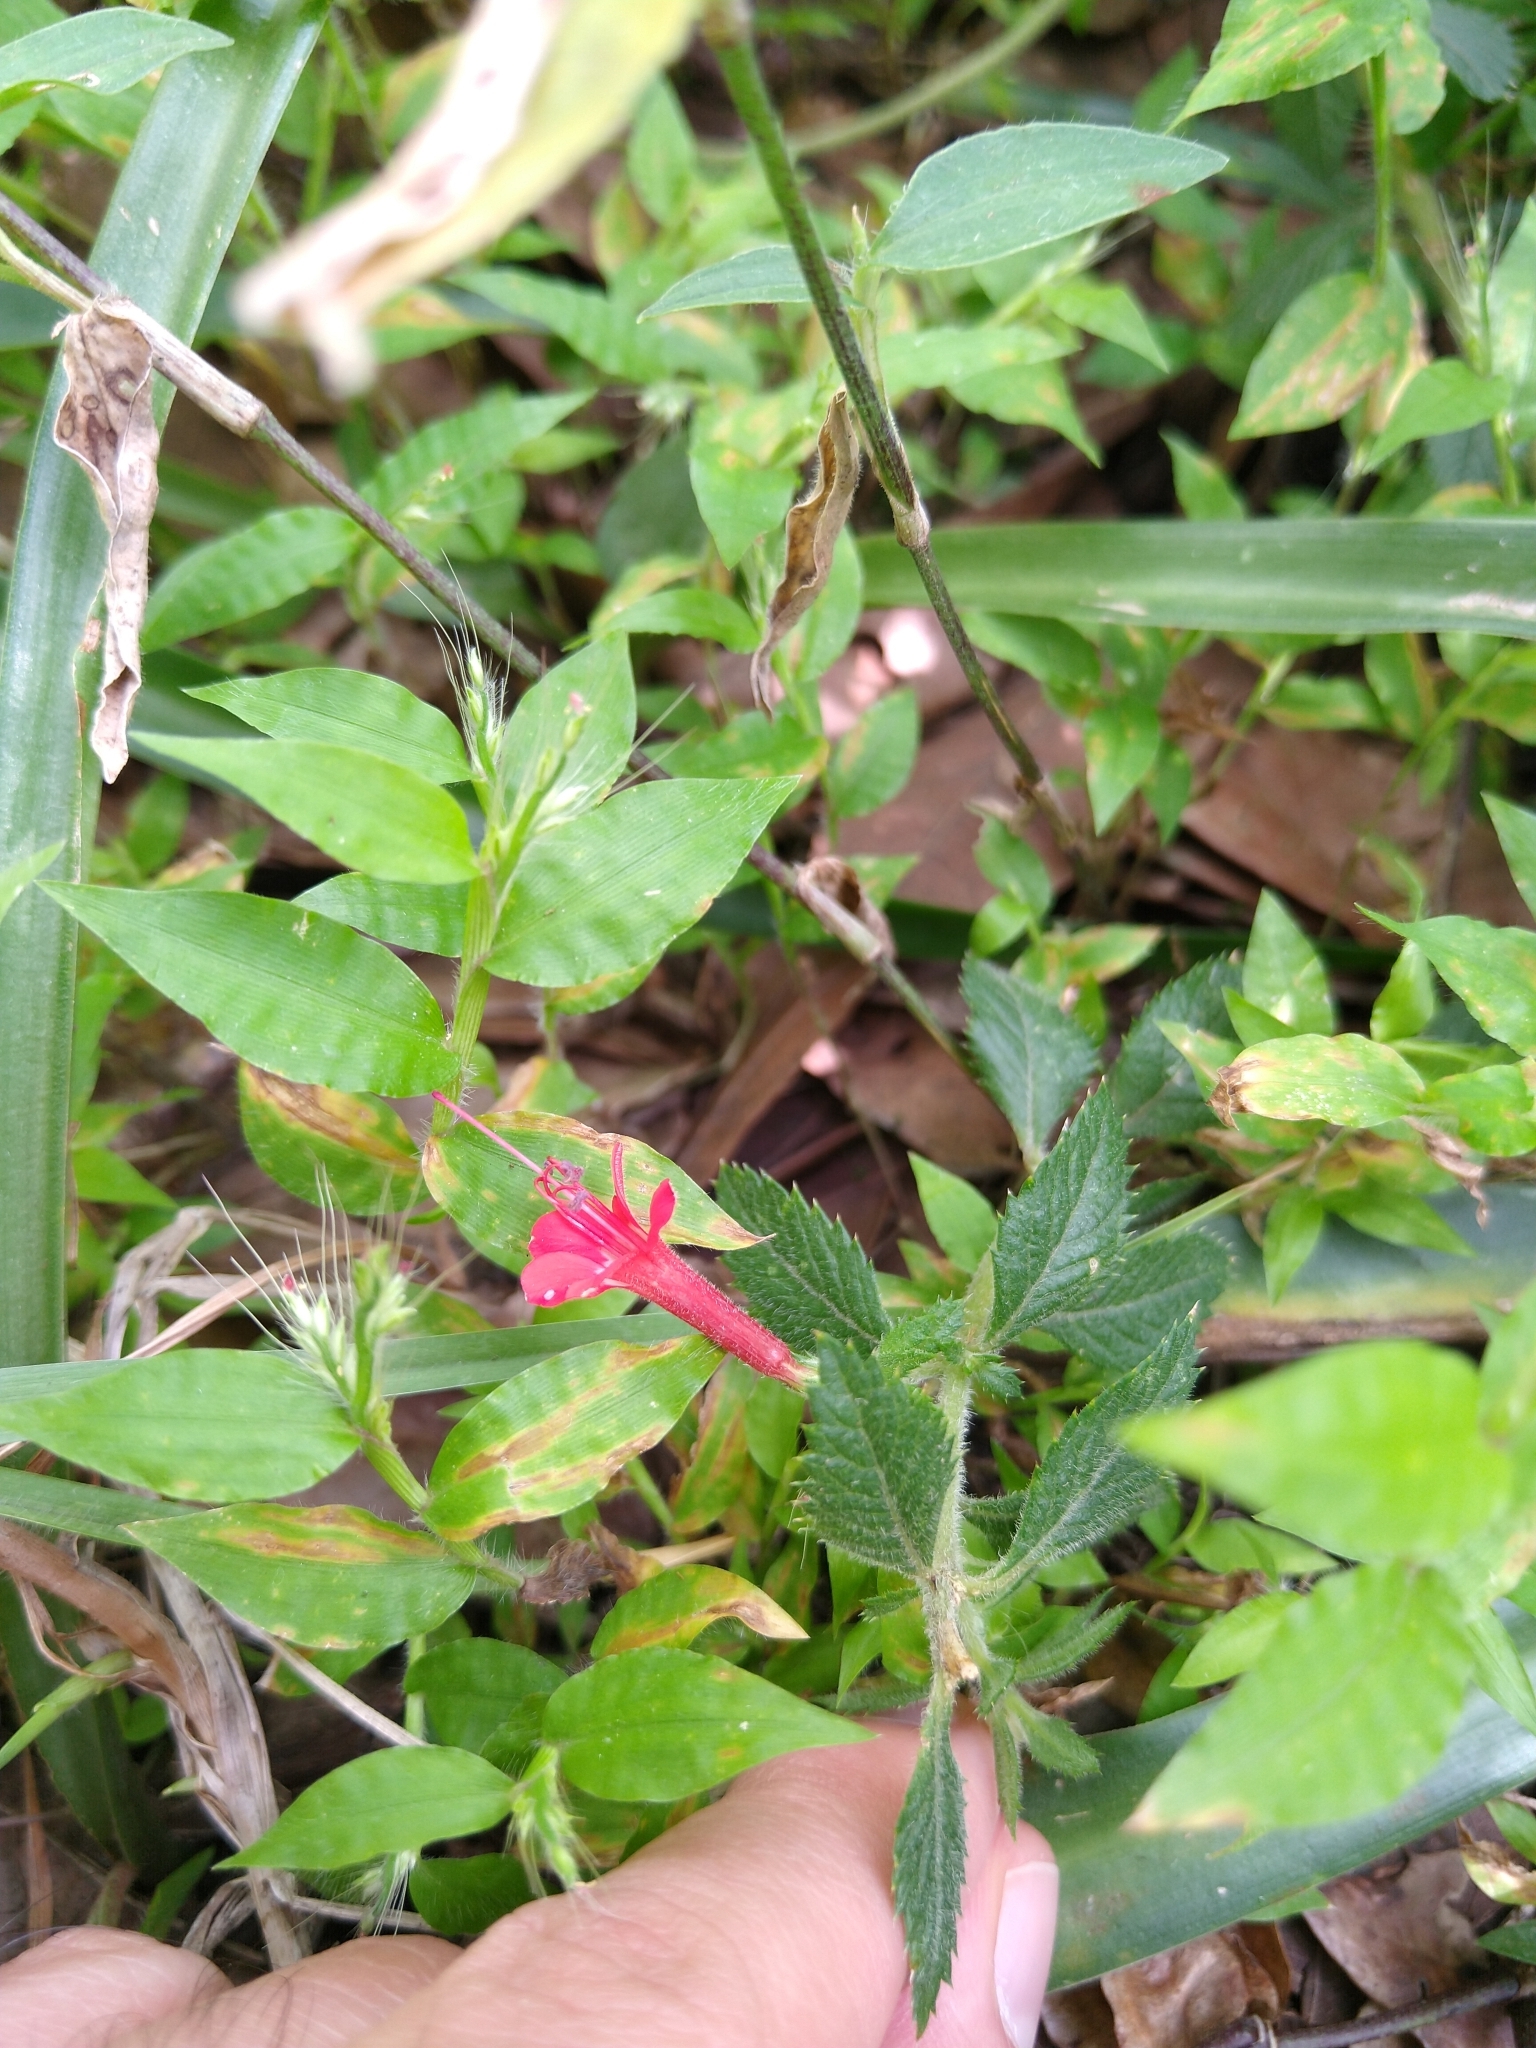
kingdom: Plantae
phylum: Tracheophyta
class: Magnoliopsida
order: Ericales
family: Polemoniaceae
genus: Loeselia
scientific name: Loeselia mexicana
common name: Mexican false calico
